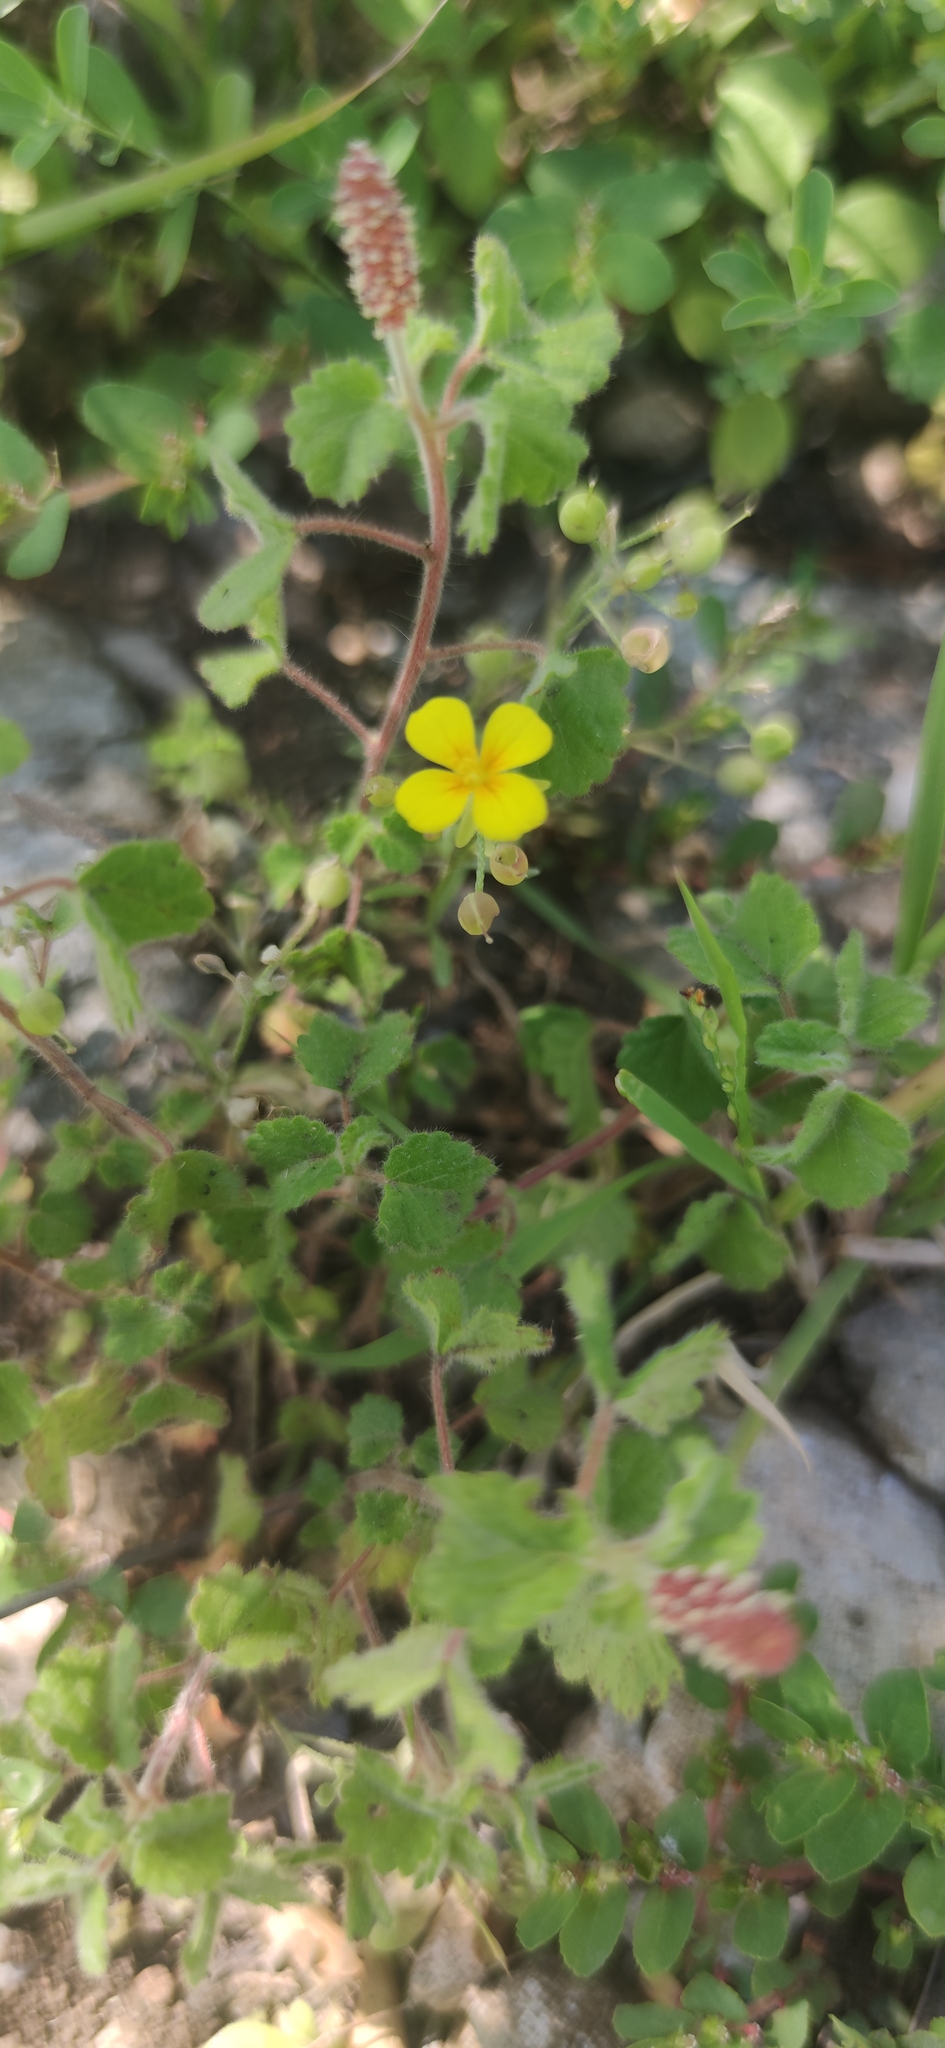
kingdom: Plantae
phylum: Tracheophyta
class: Magnoliopsida
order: Brassicales
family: Brassicaceae
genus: Physaria
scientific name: Physaria fendleri
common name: Fendler's bladderpod
